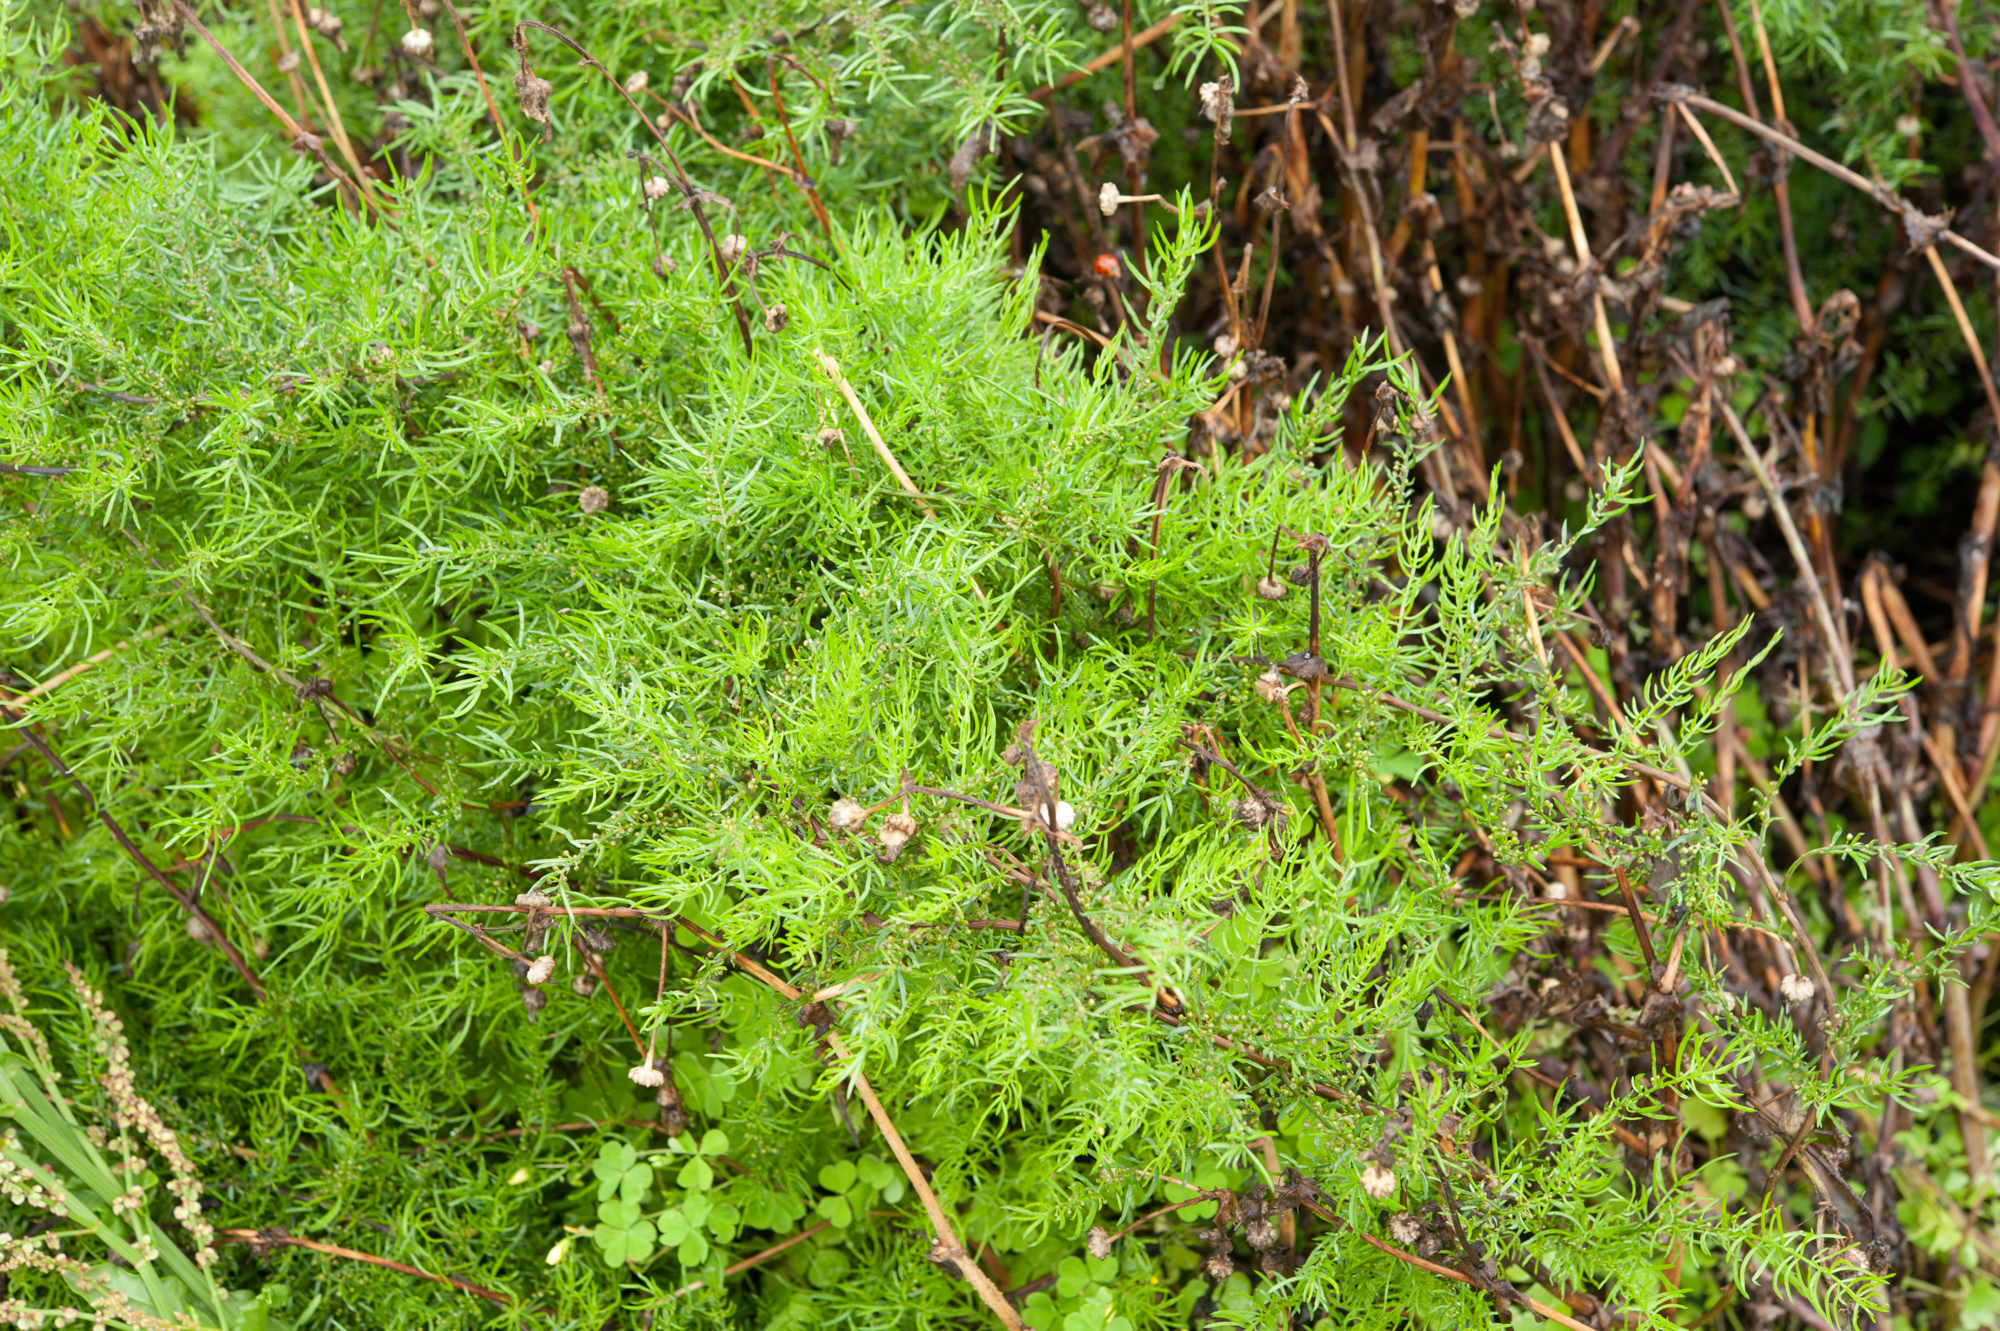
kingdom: Plantae
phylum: Tracheophyta
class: Liliopsida
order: Asparagales
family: Asparagaceae
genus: Asparagus
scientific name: Asparagus cochinchinensis
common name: Chinese asparagus
